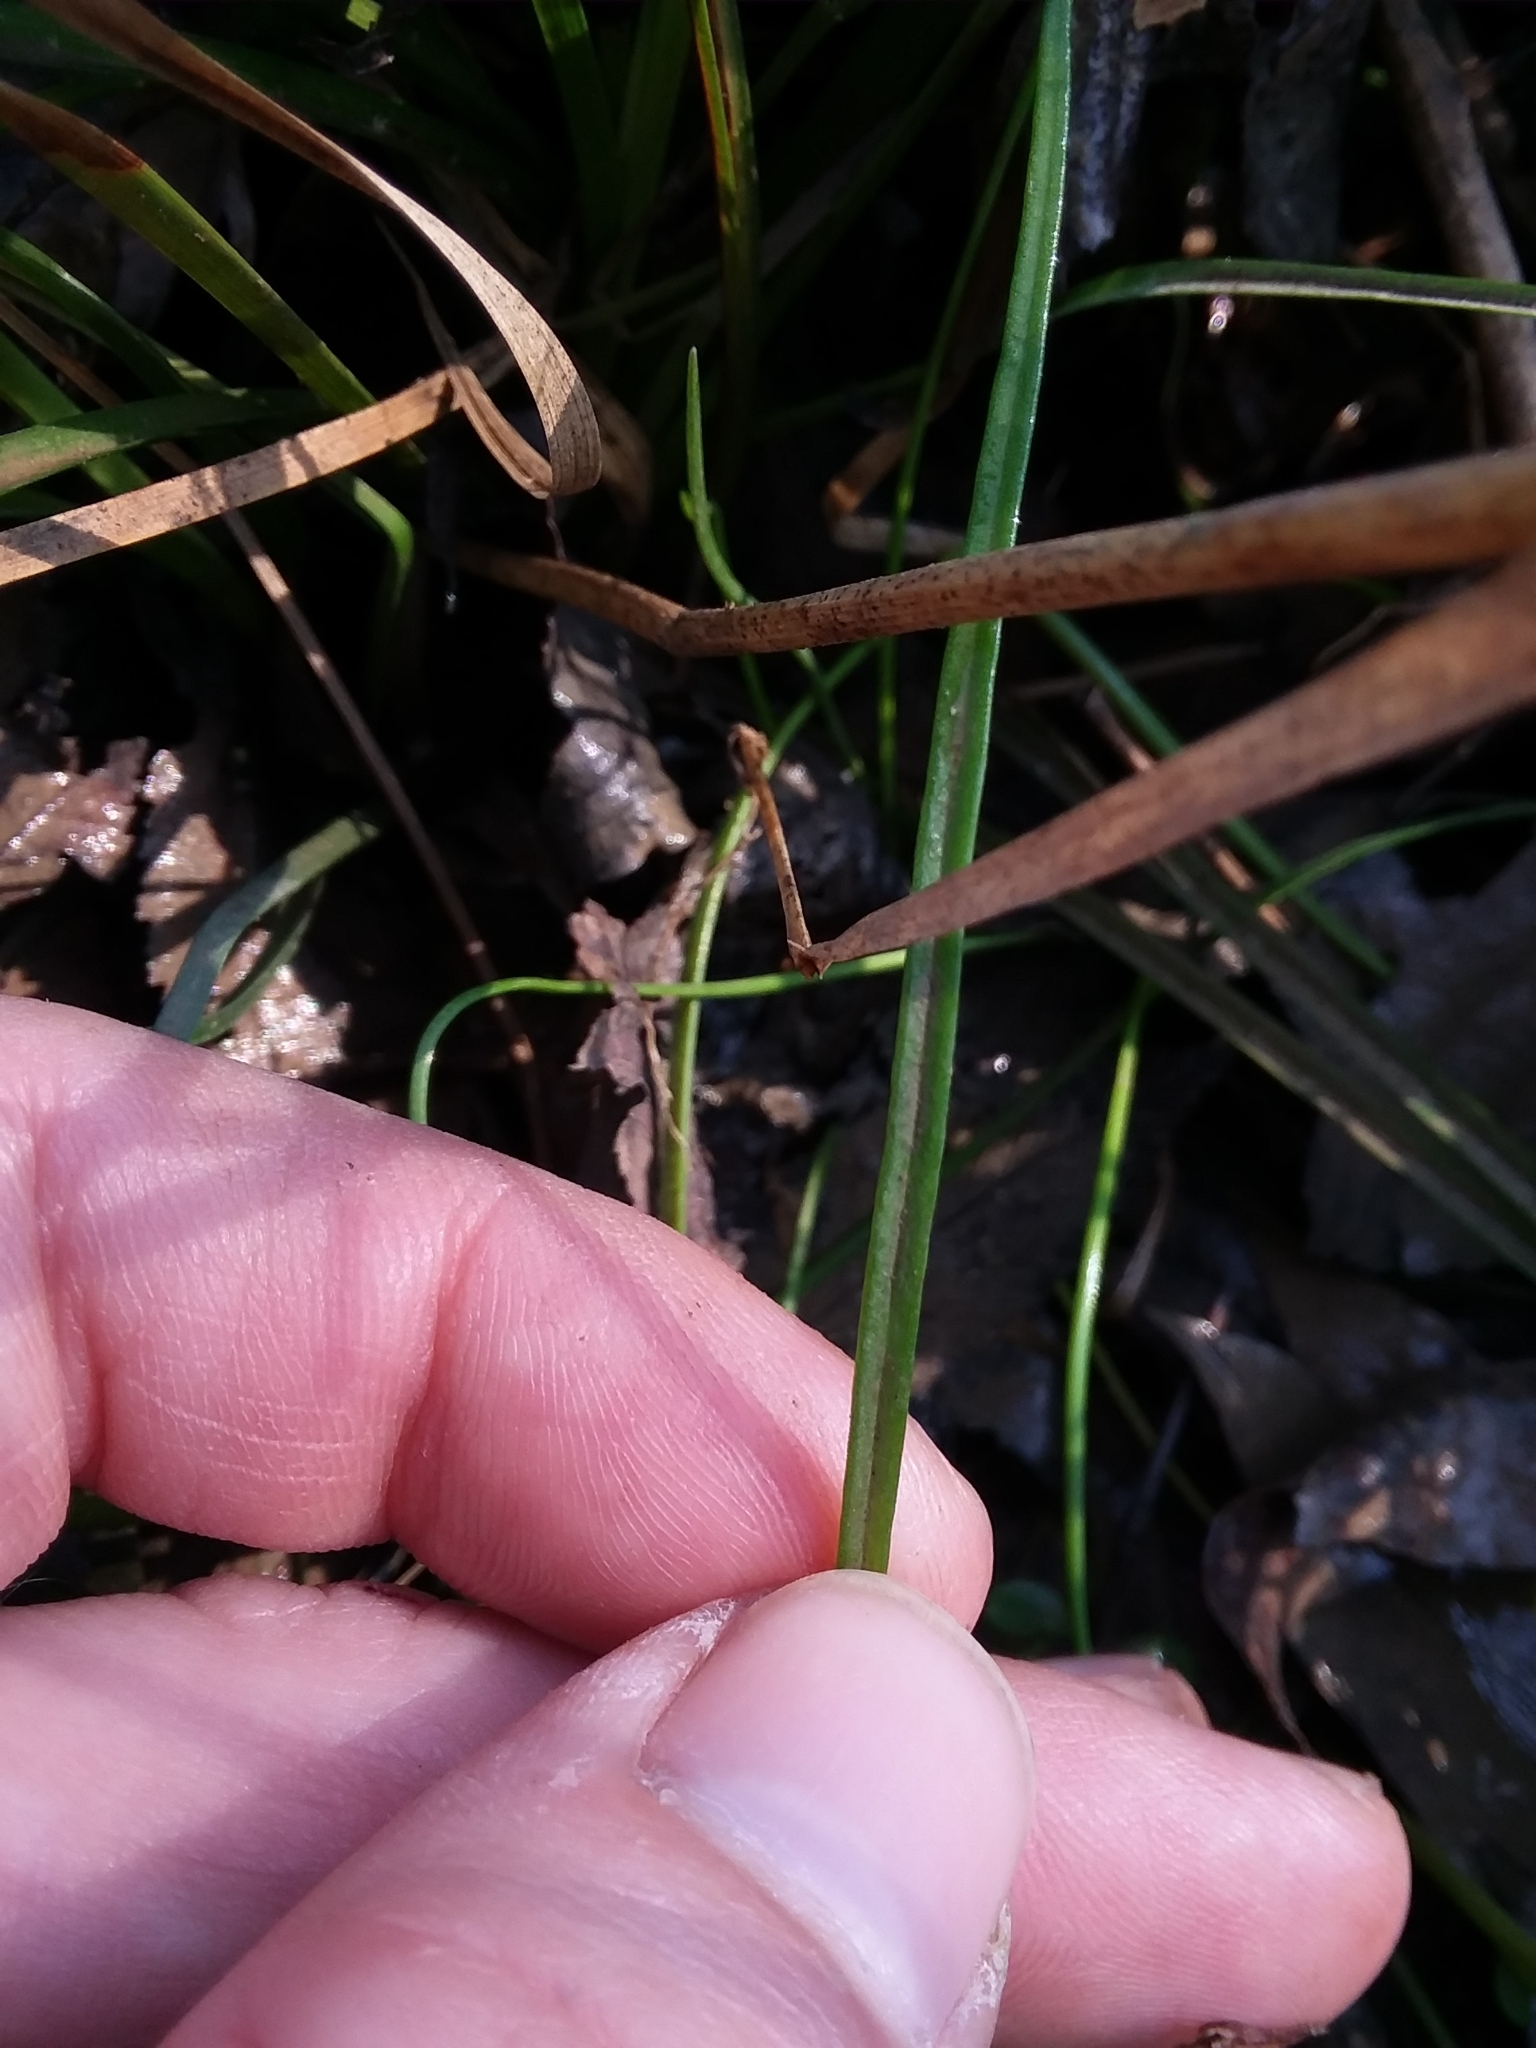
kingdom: Plantae
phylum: Tracheophyta
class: Magnoliopsida
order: Caryophyllales
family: Montiaceae
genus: Claytonia
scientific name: Claytonia virginica
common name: Virginia springbeauty
